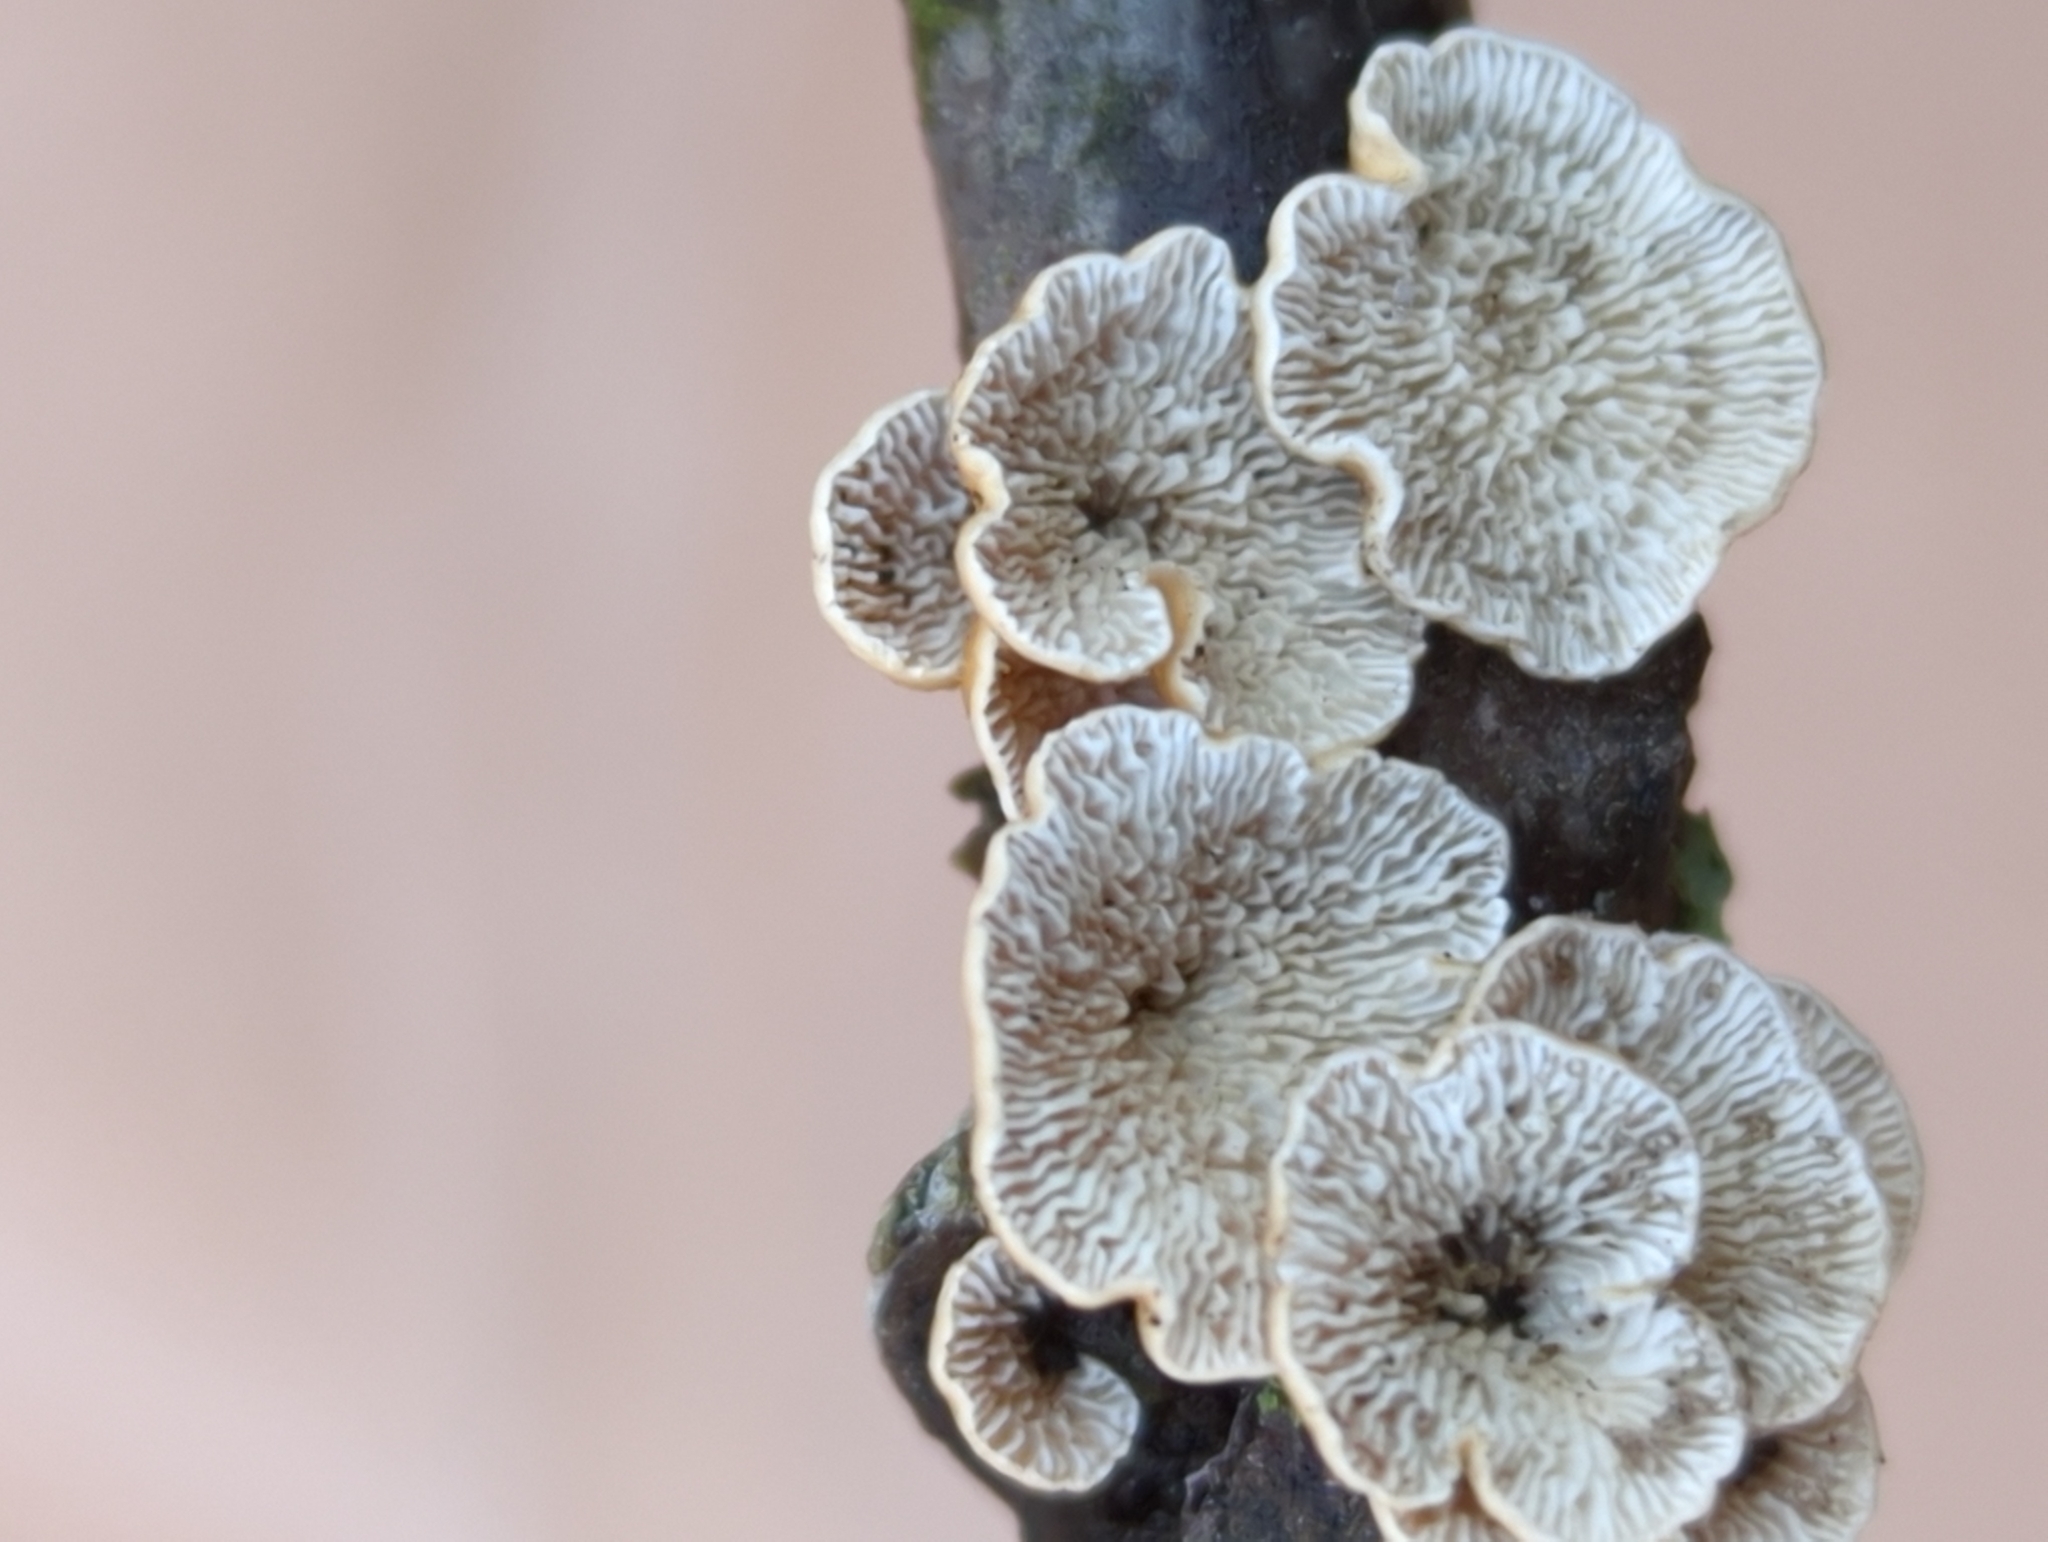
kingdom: Fungi
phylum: Basidiomycota
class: Agaricomycetes
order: Amylocorticiales
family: Amylocorticiaceae
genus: Plicaturopsis
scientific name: Plicaturopsis crispa
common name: Crimped gill
